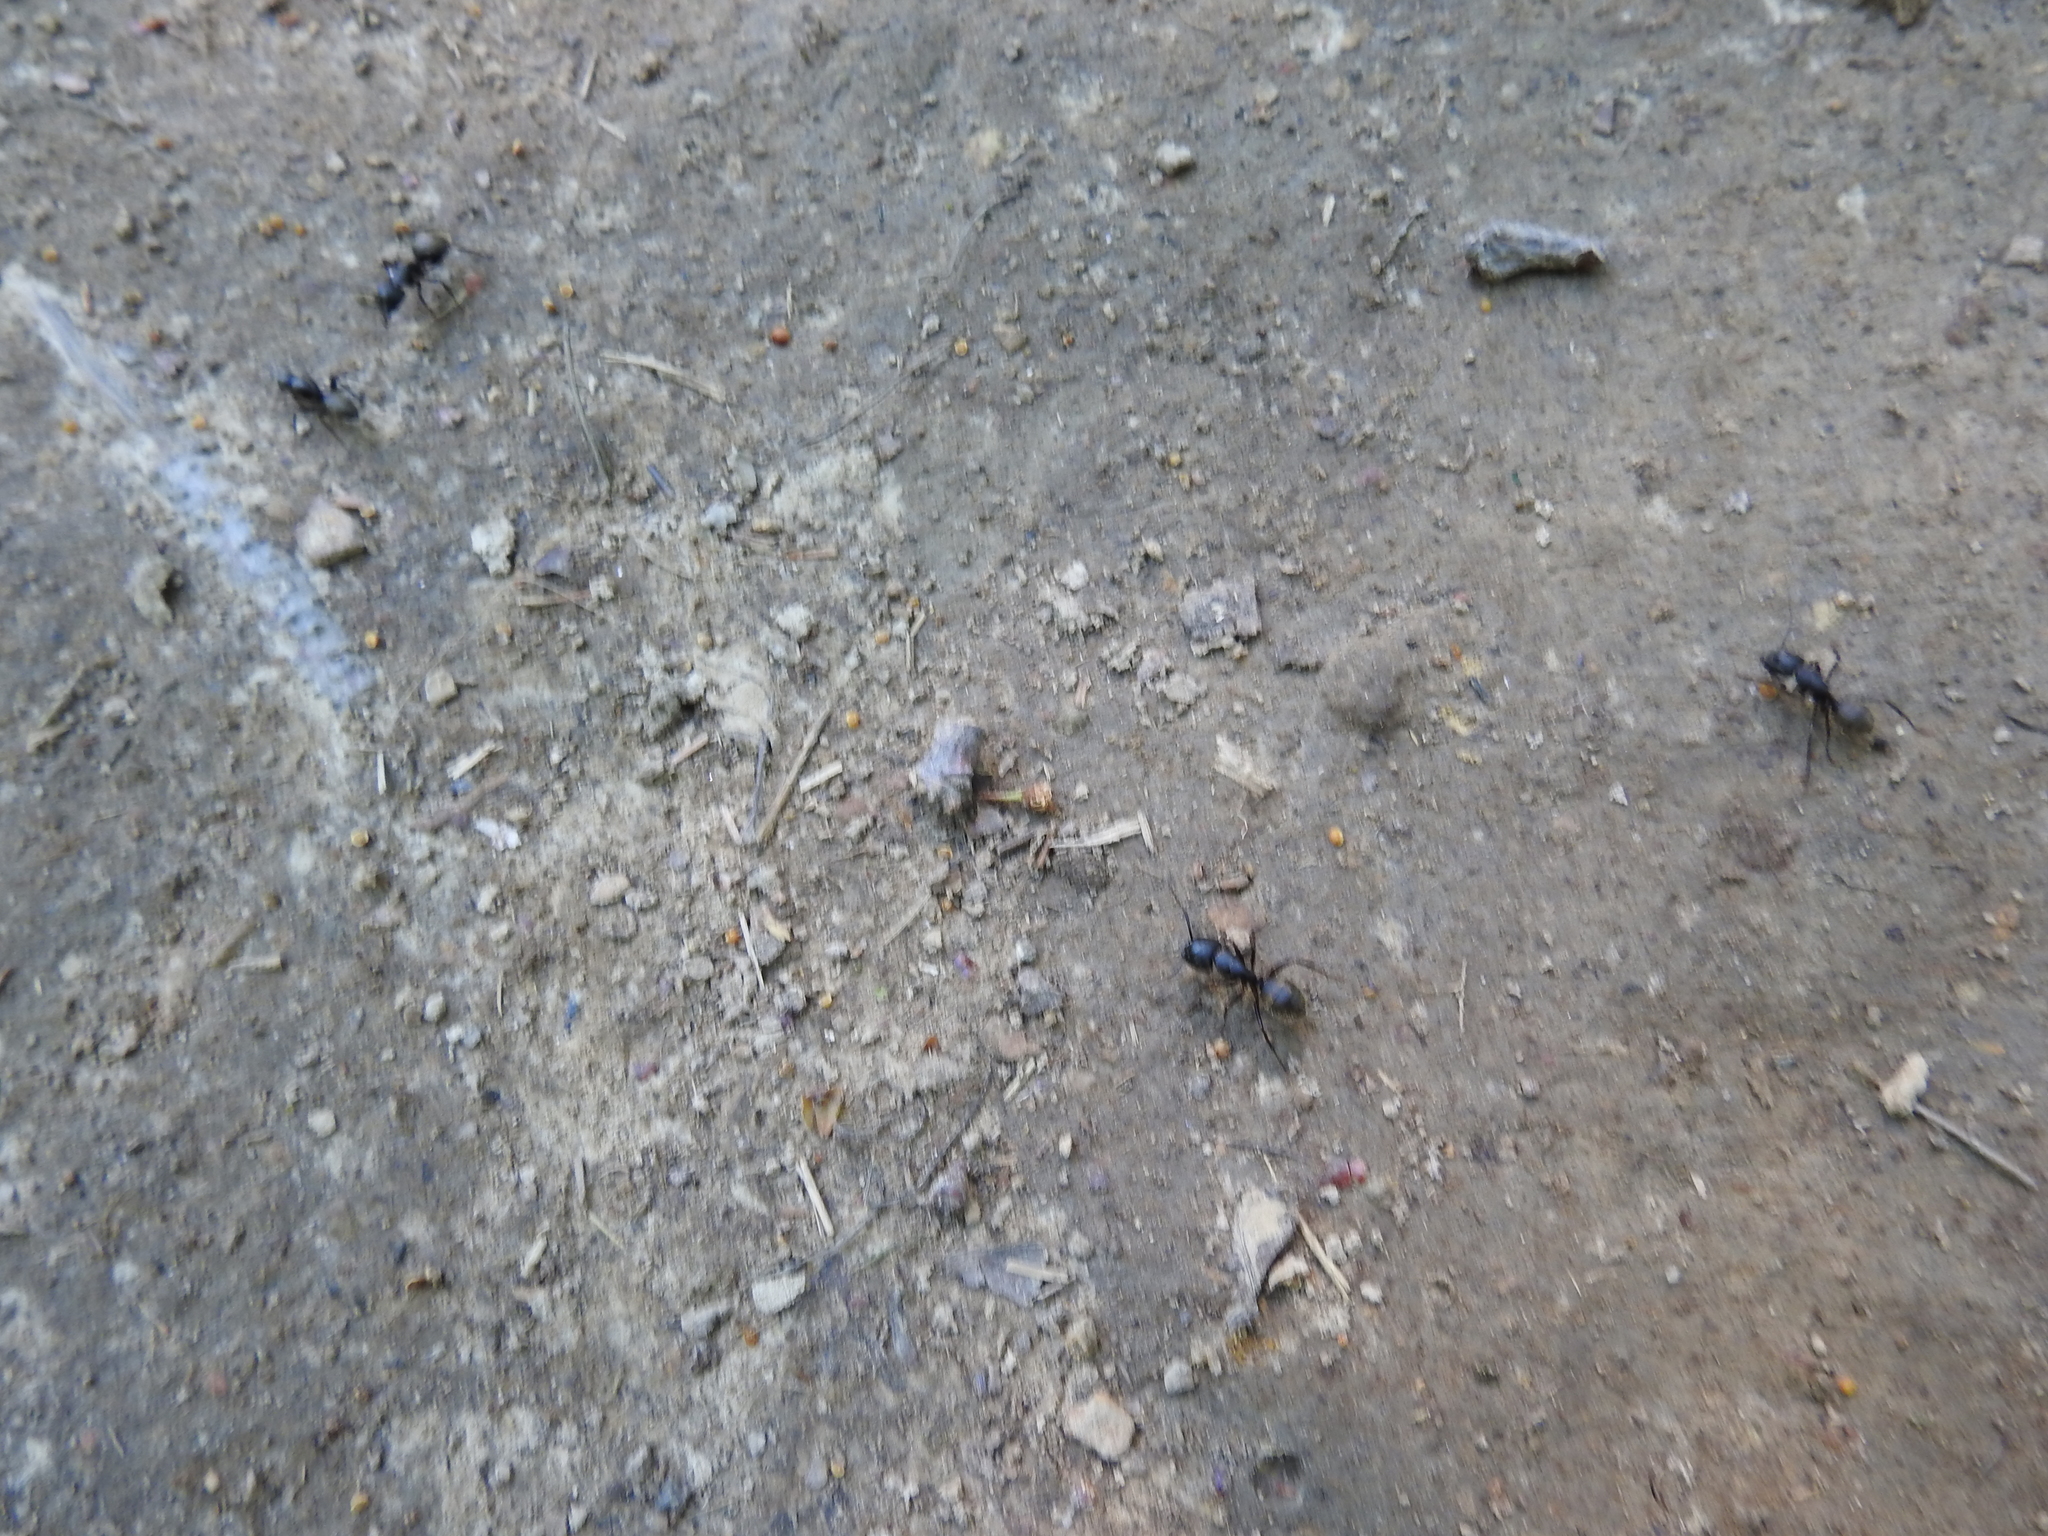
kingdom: Animalia
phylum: Arthropoda
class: Insecta
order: Hymenoptera
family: Formicidae
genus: Camponotus
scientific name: Camponotus pennsylvanicus
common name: Black carpenter ant
